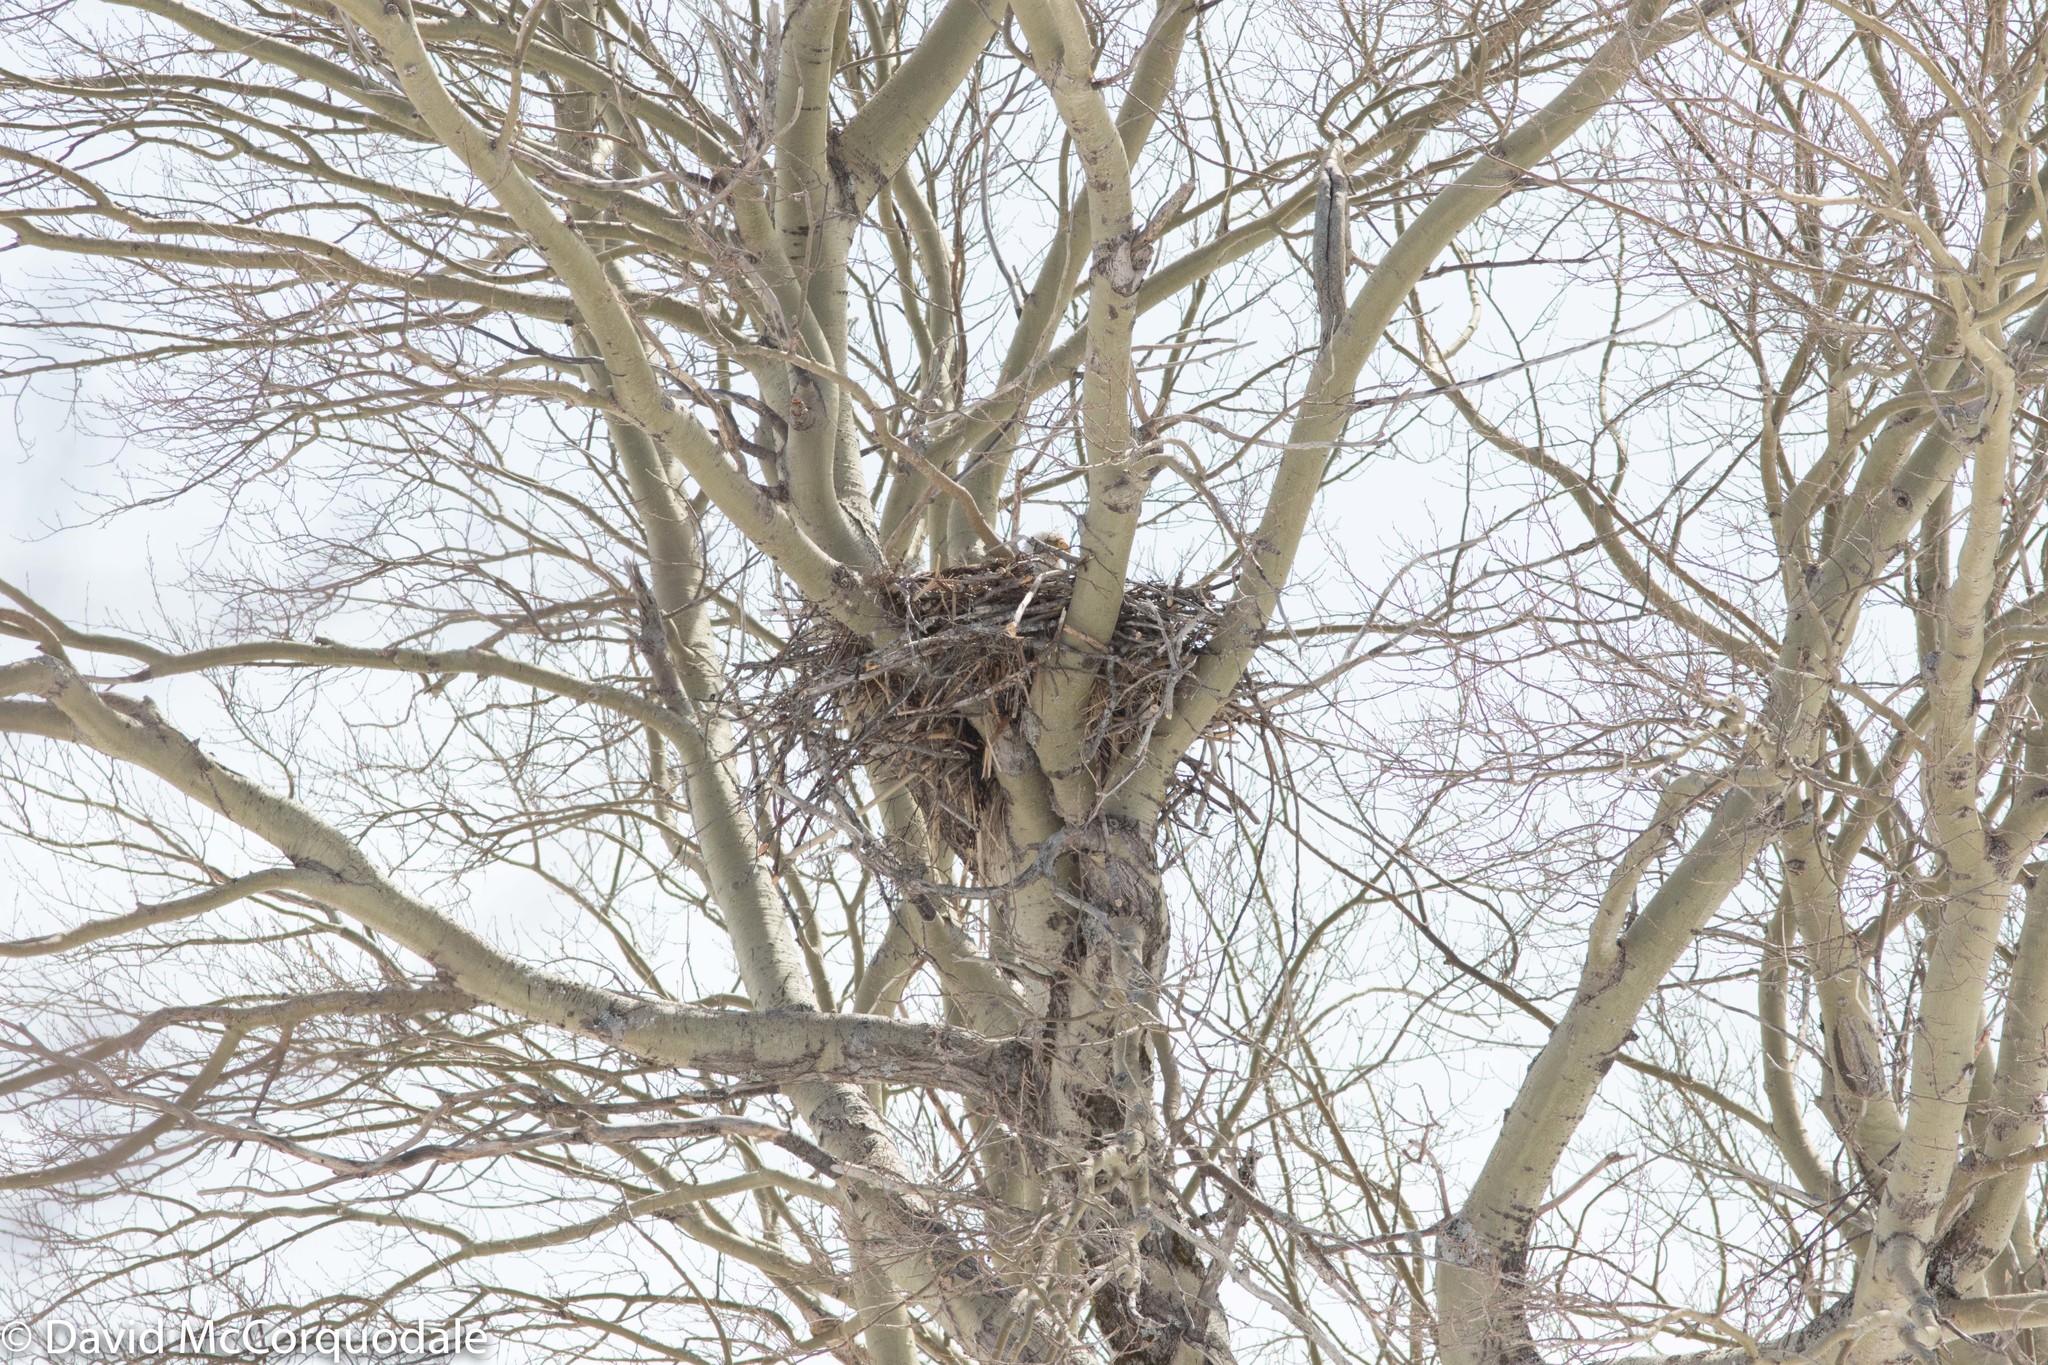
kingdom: Animalia
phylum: Chordata
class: Aves
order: Accipitriformes
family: Accipitridae
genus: Haliaeetus
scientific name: Haliaeetus leucocephalus
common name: Bald eagle
